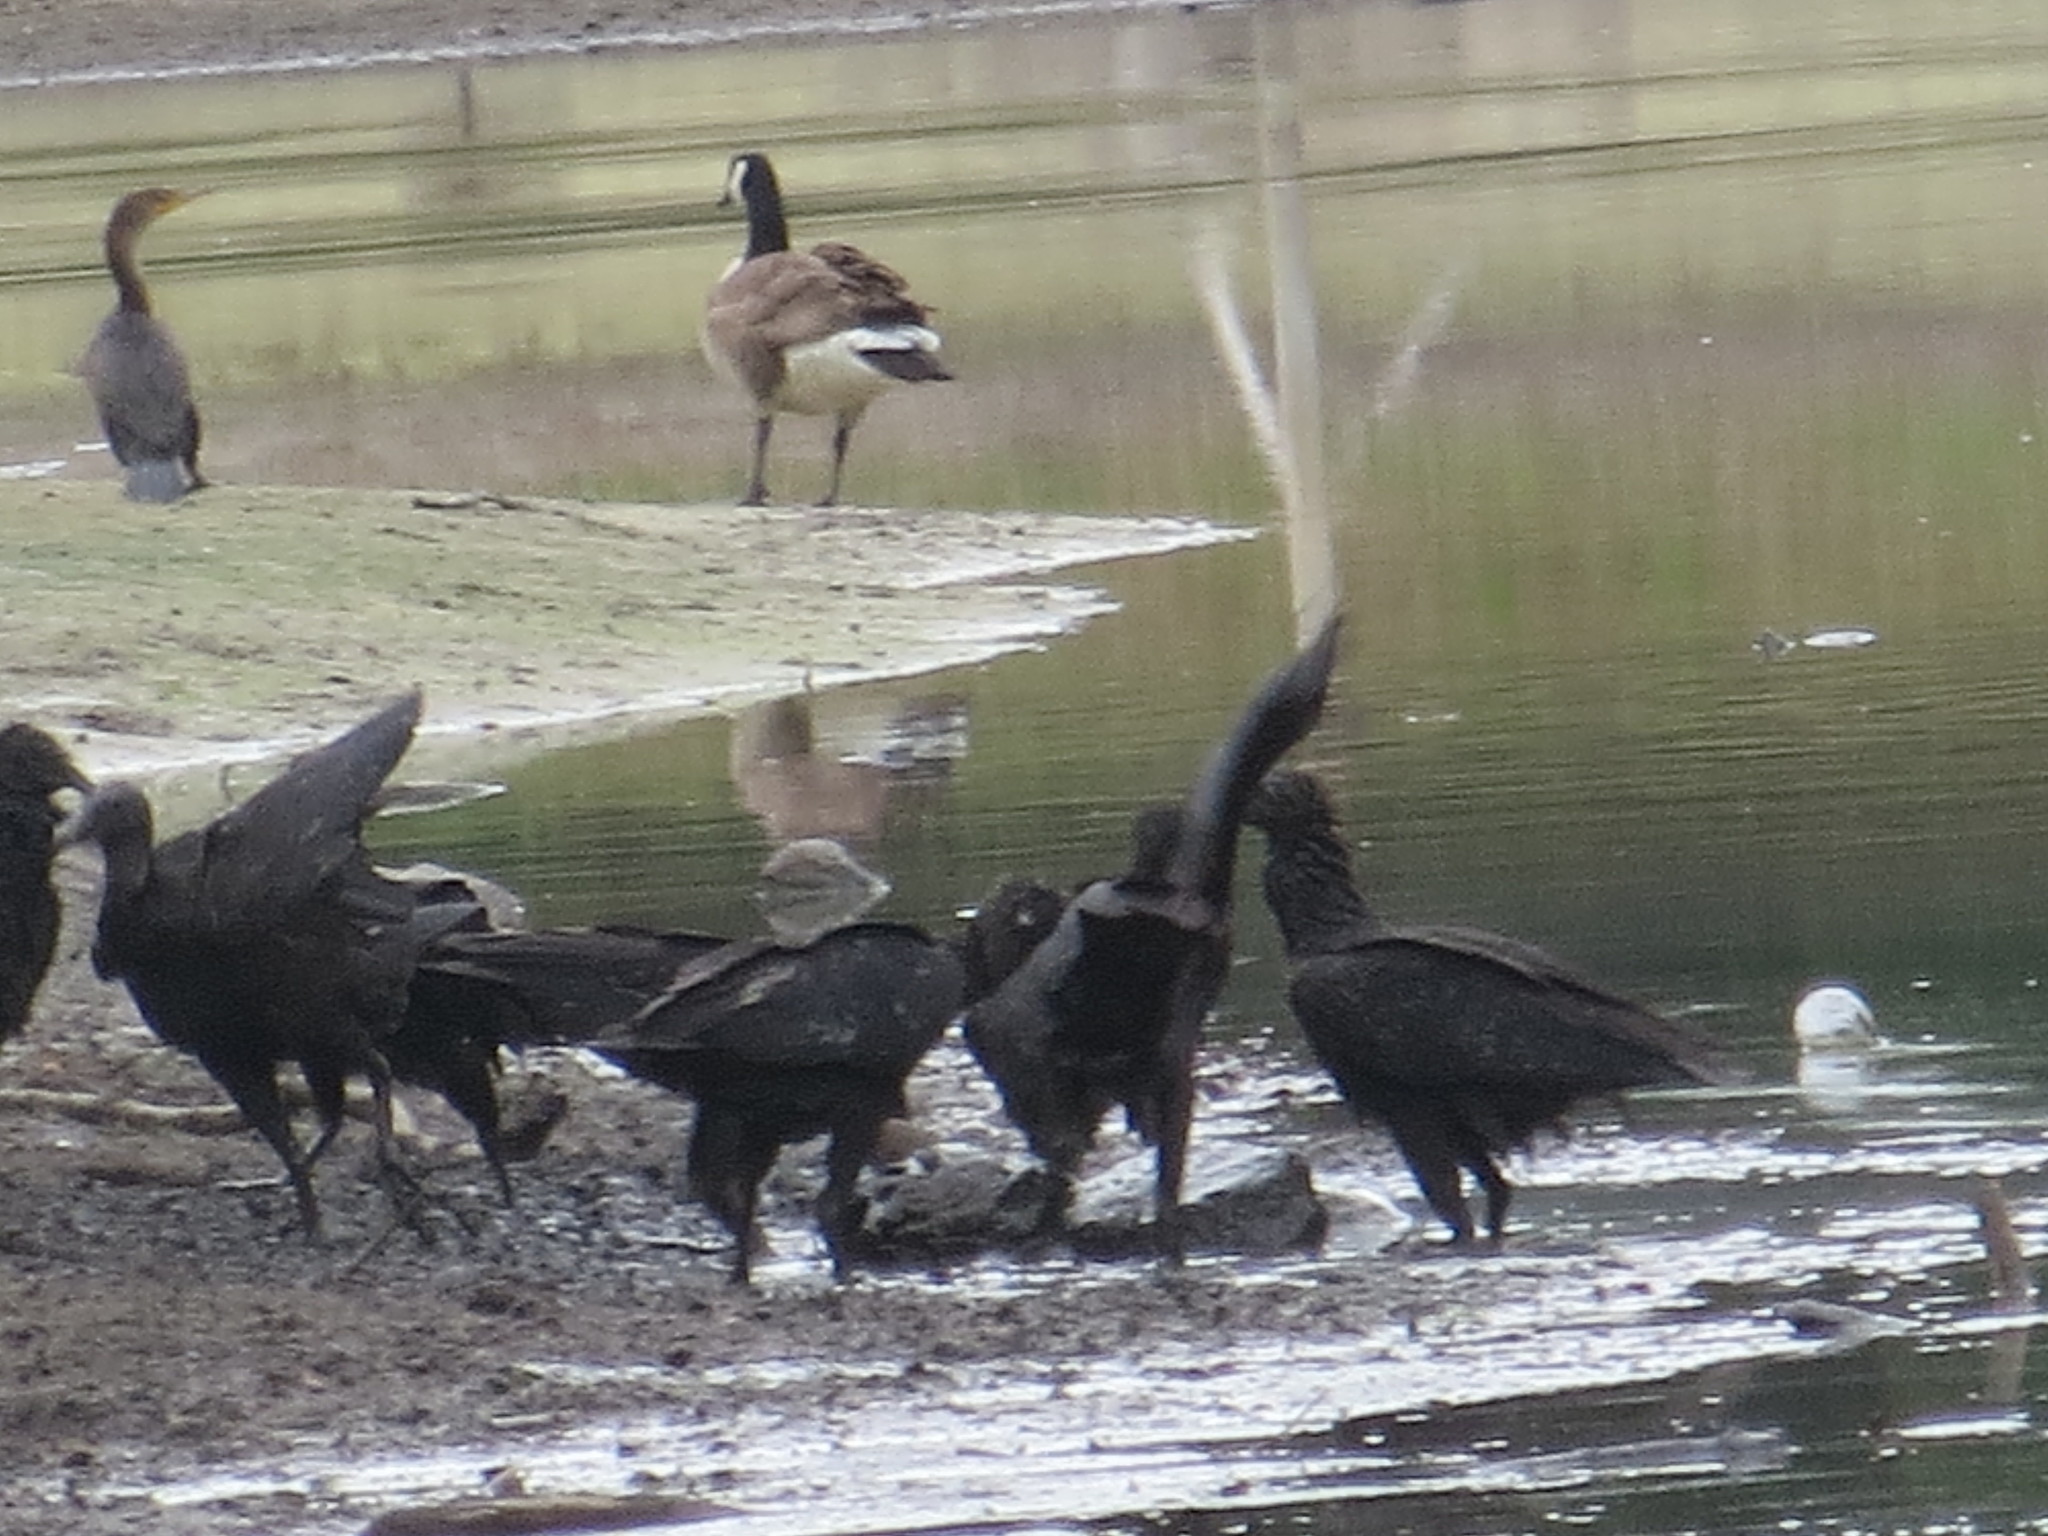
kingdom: Animalia
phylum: Chordata
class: Aves
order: Accipitriformes
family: Cathartidae
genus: Coragyps
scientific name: Coragyps atratus
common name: Black vulture
